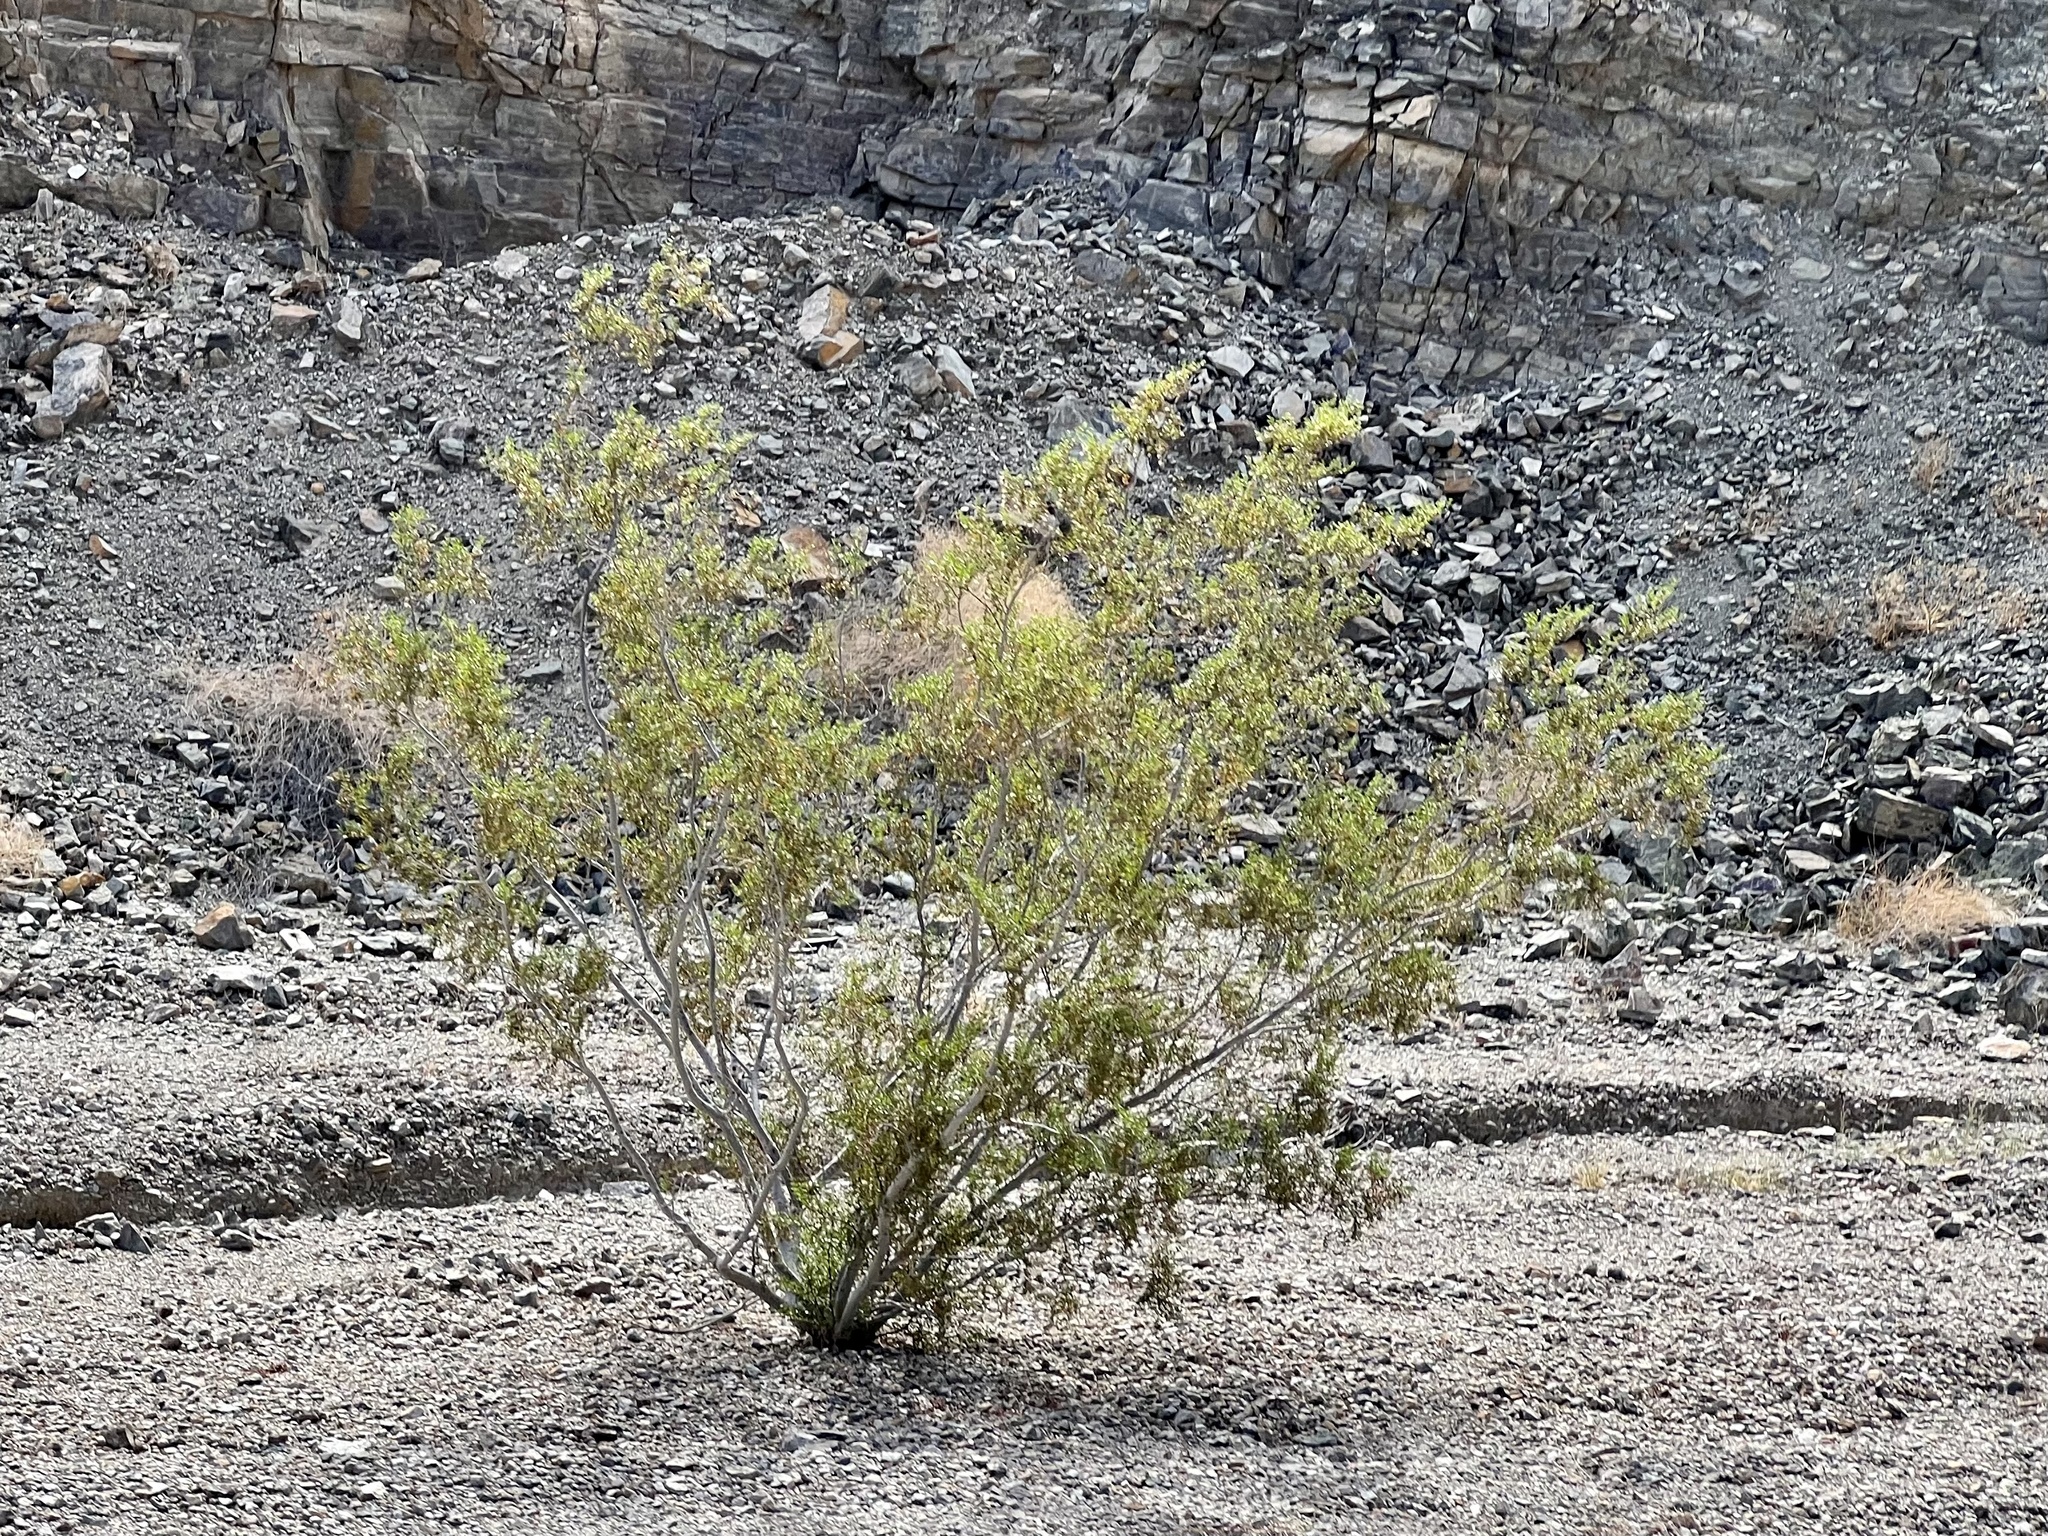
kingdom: Plantae
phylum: Tracheophyta
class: Magnoliopsida
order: Zygophyllales
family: Zygophyllaceae
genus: Larrea
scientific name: Larrea tridentata
